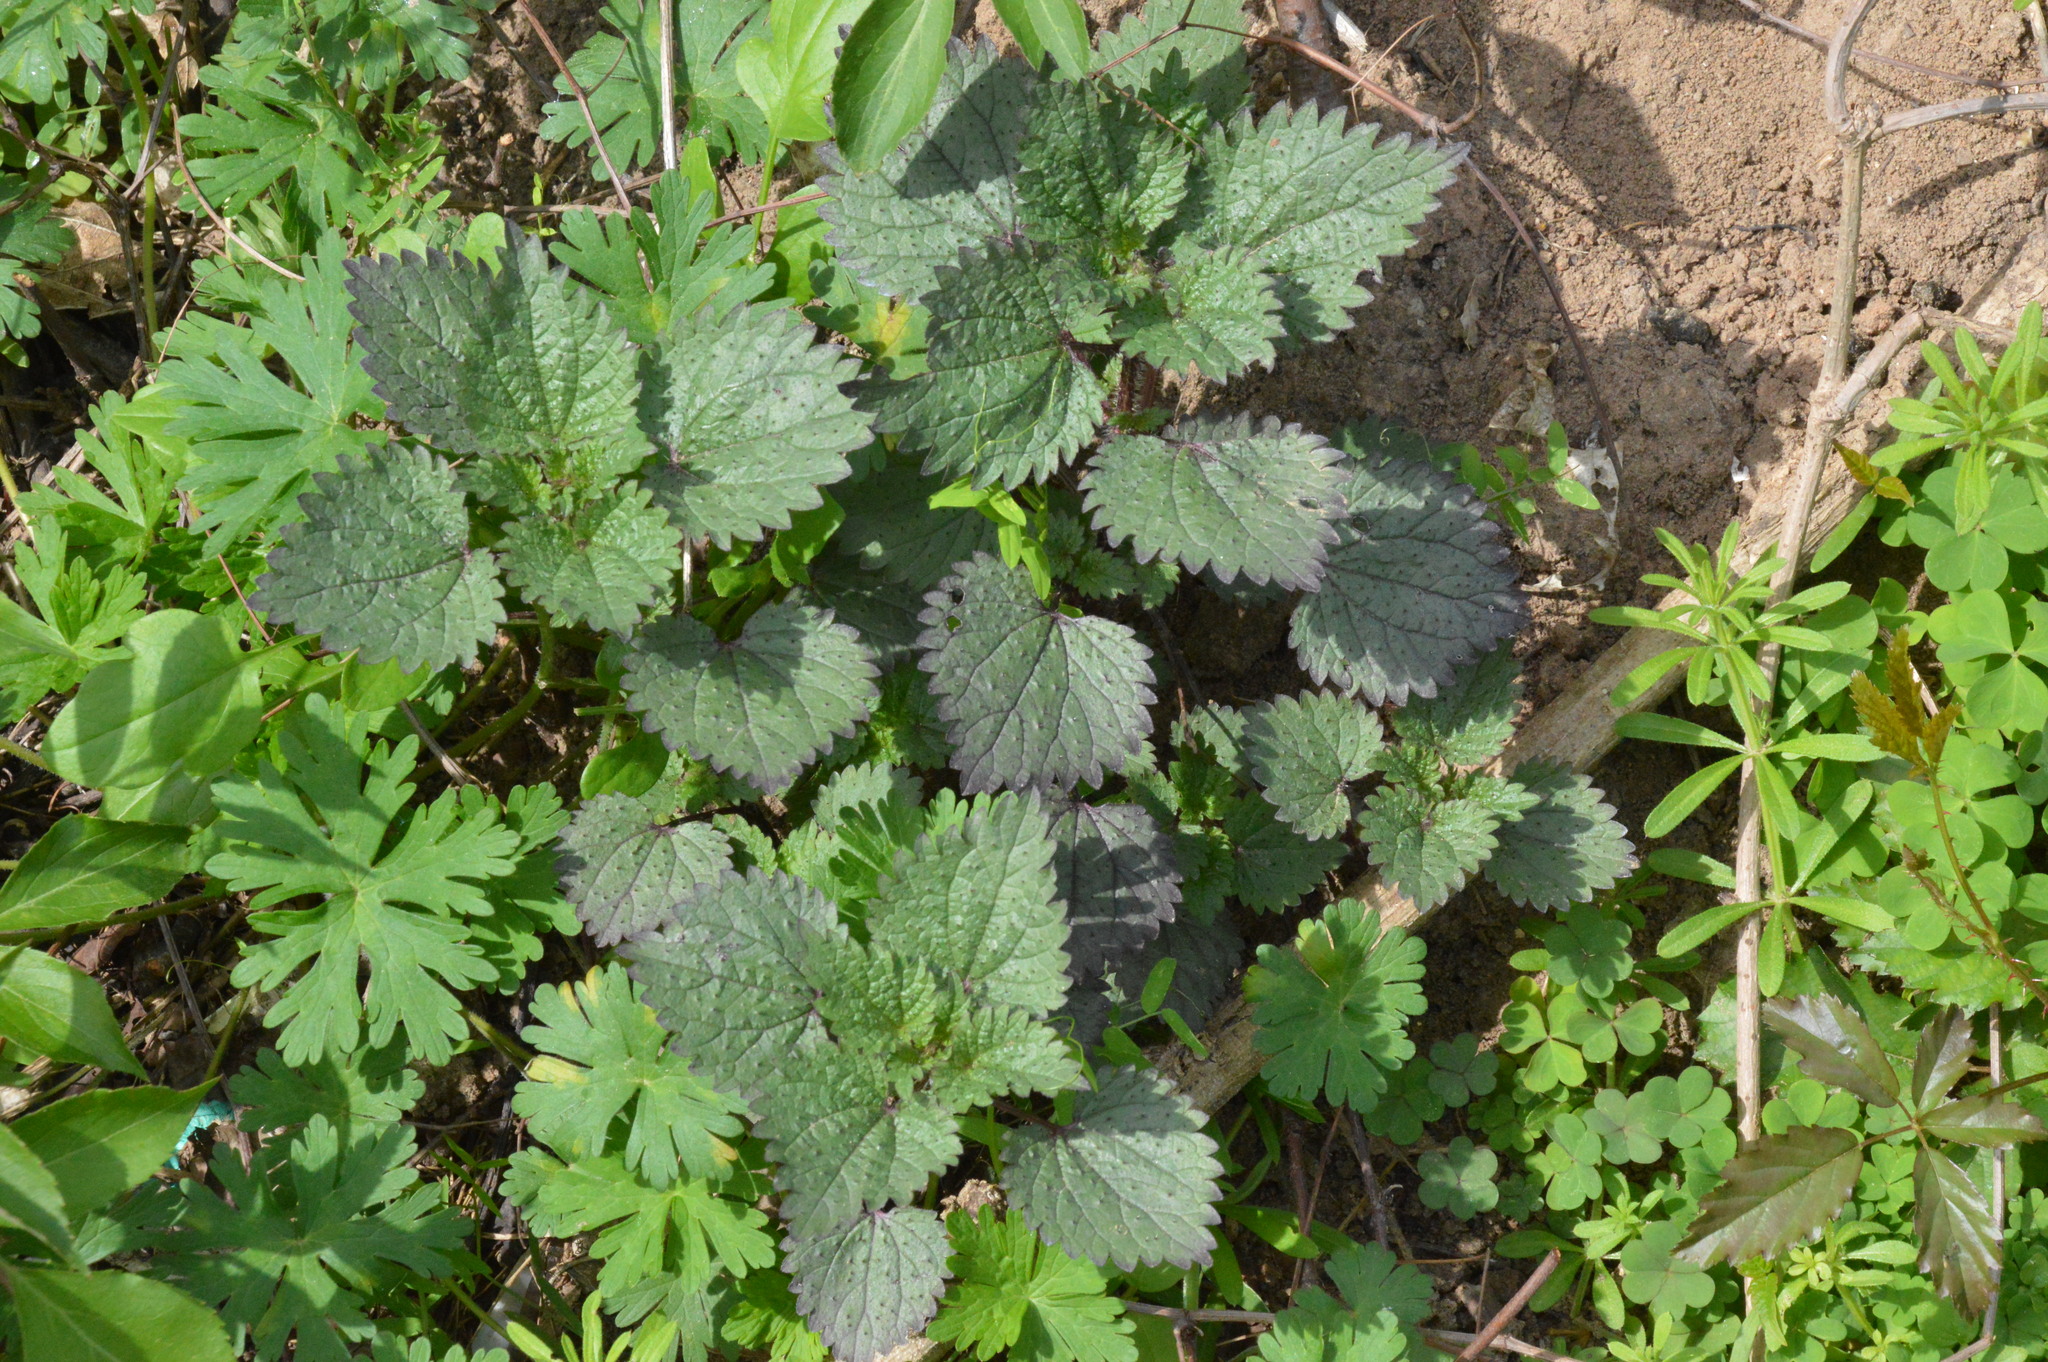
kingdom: Plantae
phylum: Tracheophyta
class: Magnoliopsida
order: Rosales
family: Urticaceae
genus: Urtica
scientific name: Urtica chamaedryoides
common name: Heart-leaf nettle
